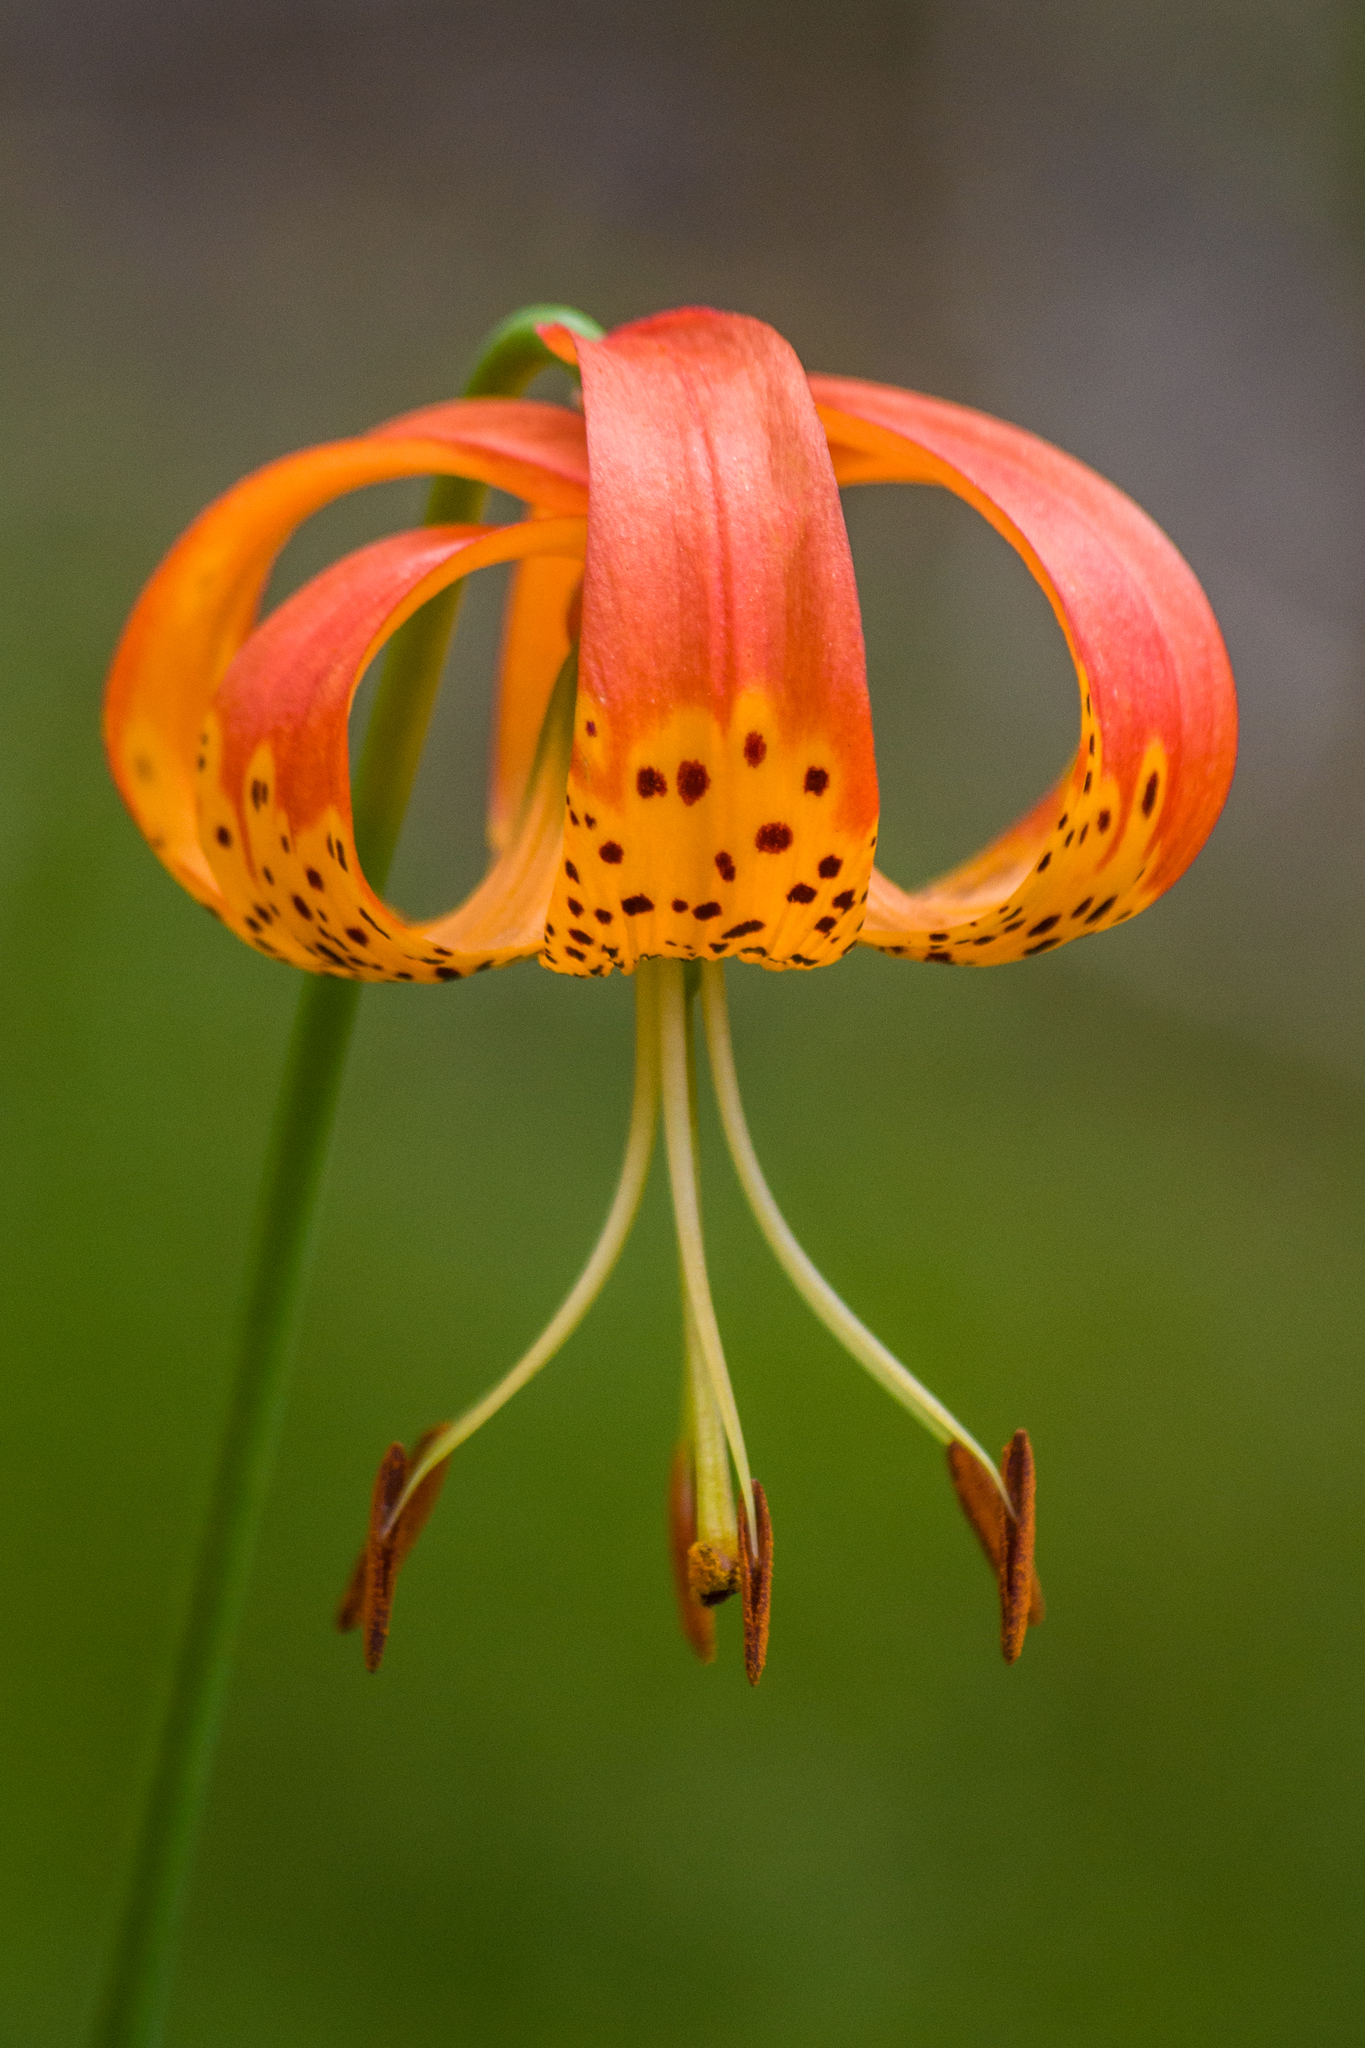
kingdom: Plantae
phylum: Tracheophyta
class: Liliopsida
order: Liliales
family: Liliaceae
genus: Lilium
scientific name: Lilium pardalinum
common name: Panther lily
